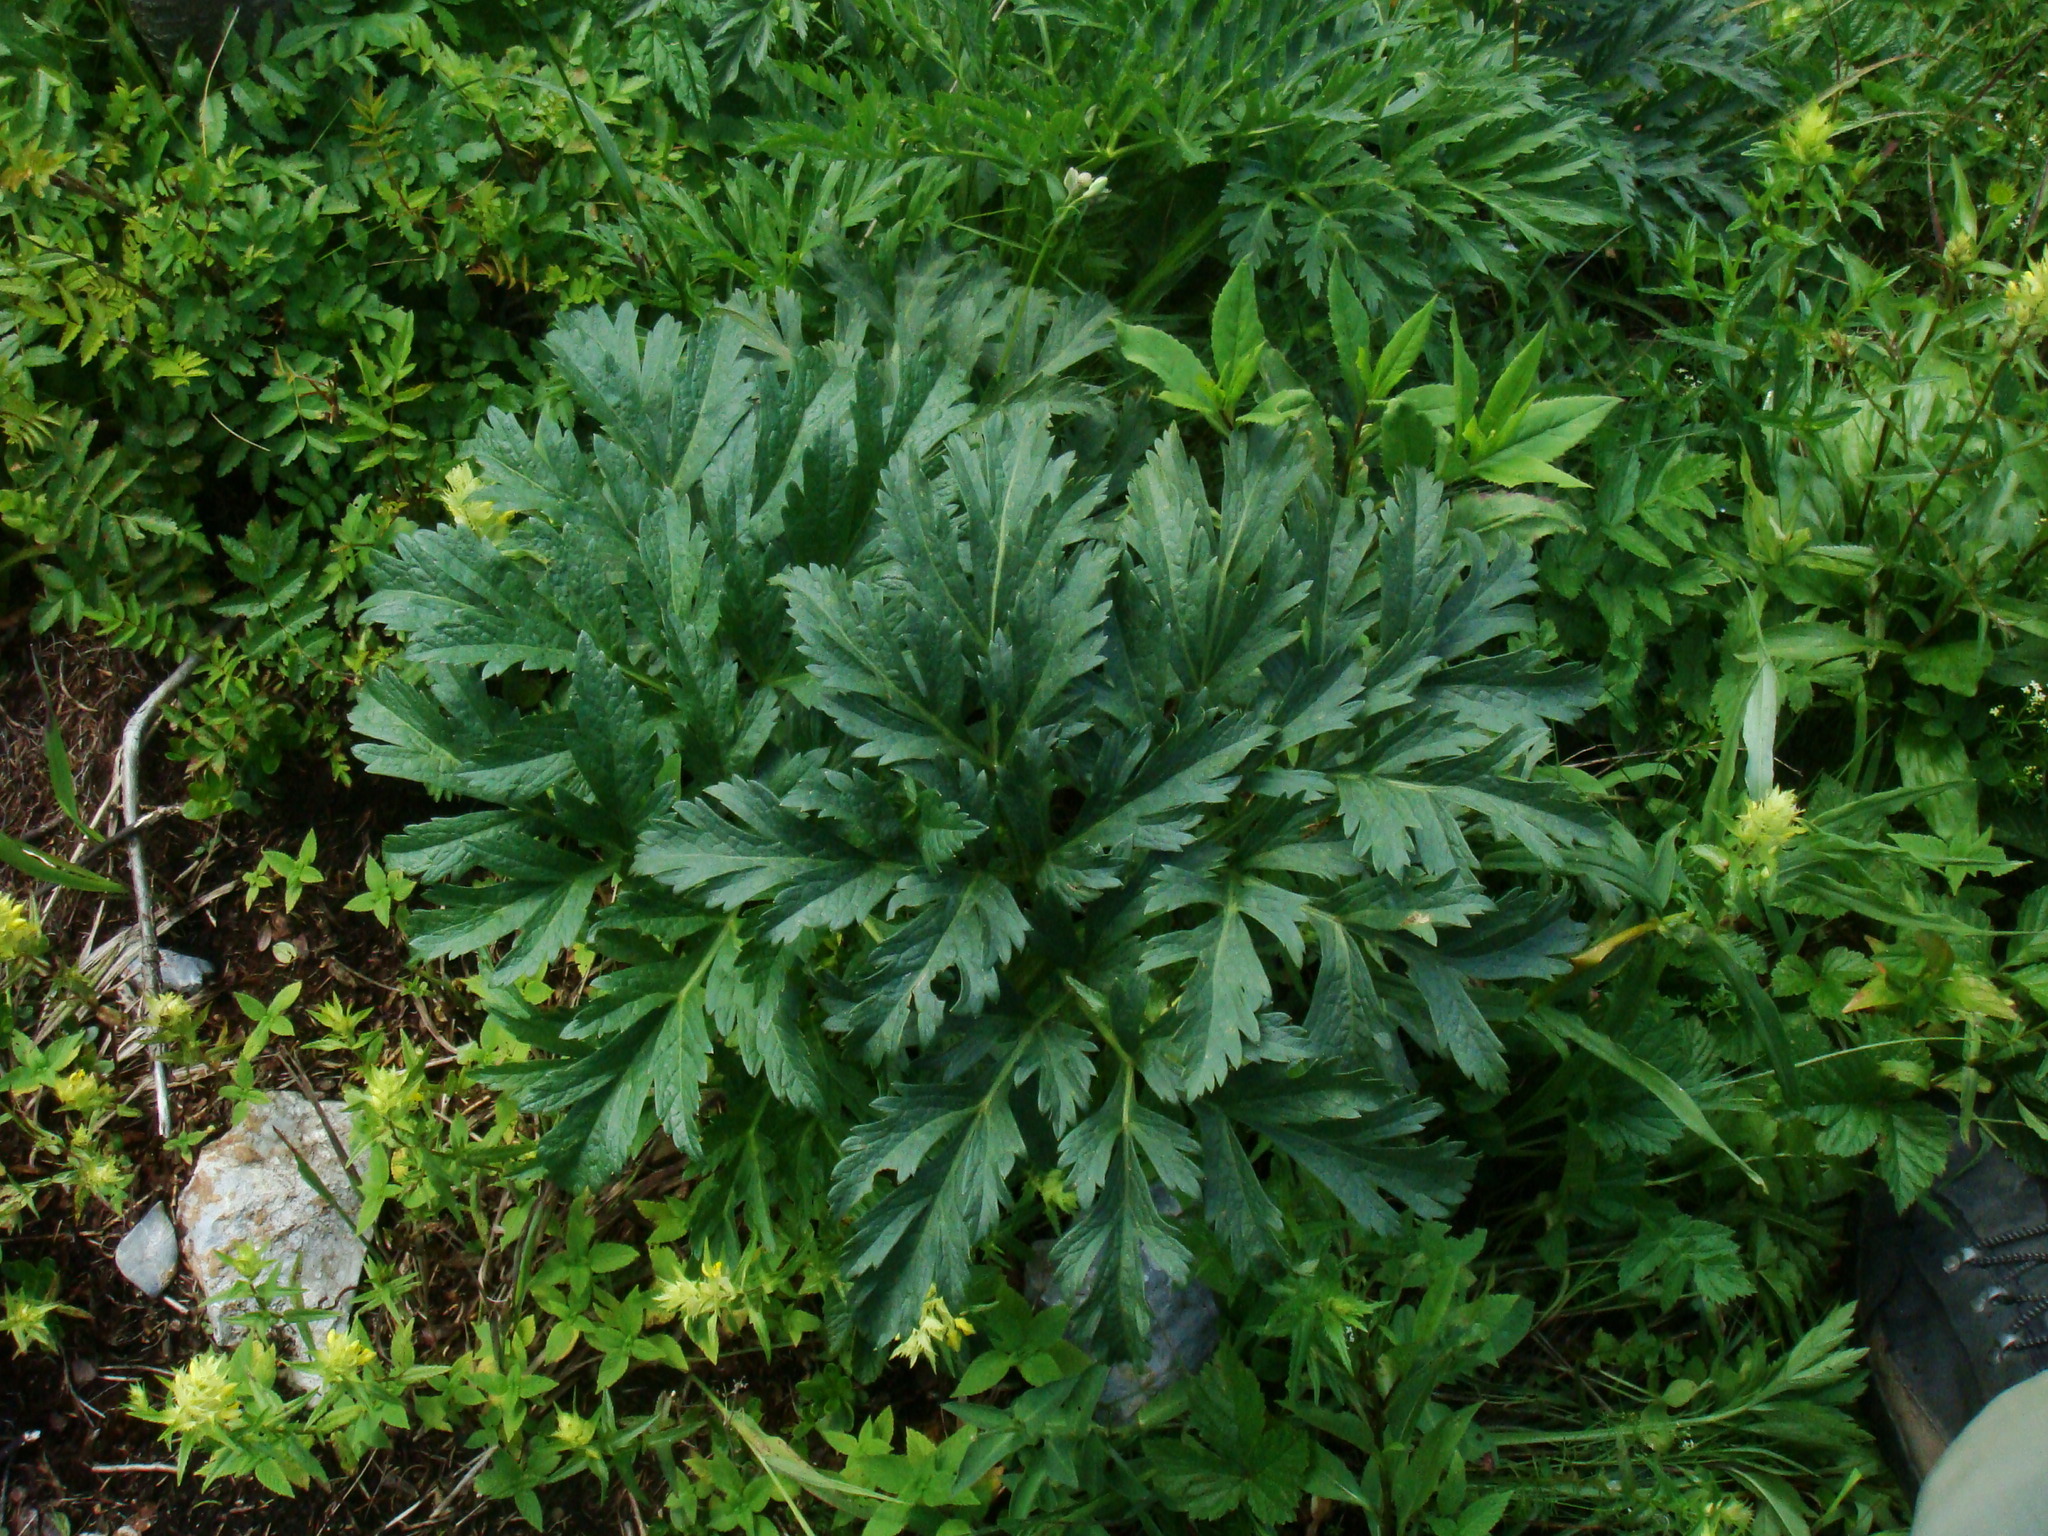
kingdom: Plantae
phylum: Tracheophyta
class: Magnoliopsida
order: Apiales
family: Apiaceae
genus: Pleurospermum
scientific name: Pleurospermum austriacum
